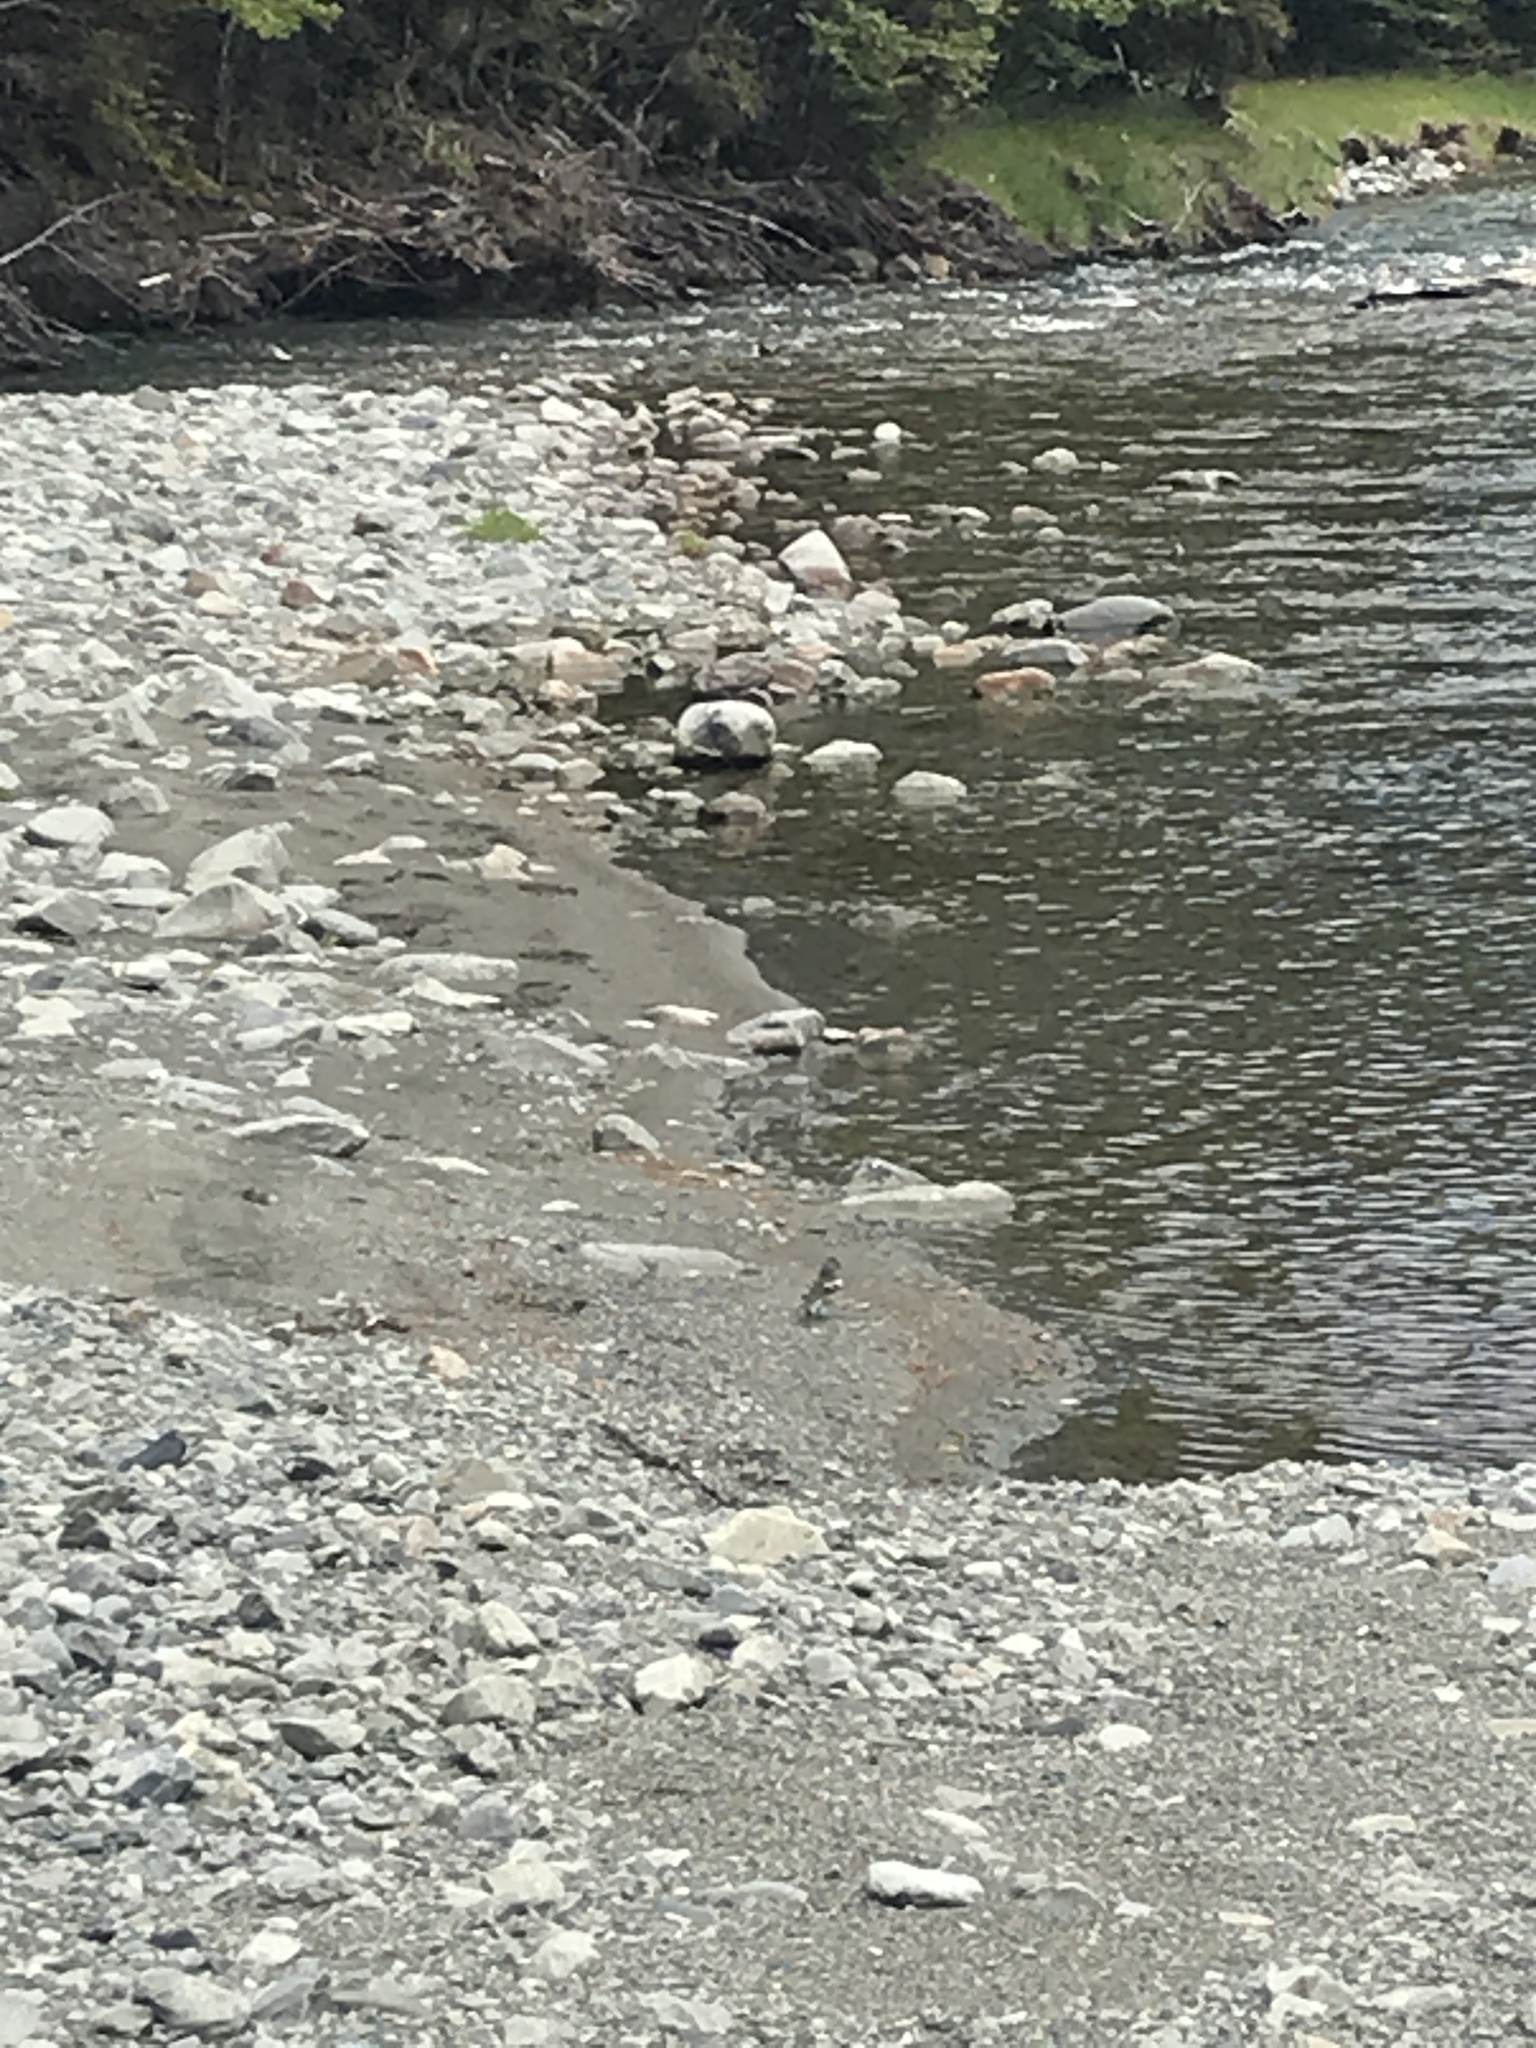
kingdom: Animalia
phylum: Chordata
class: Aves
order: Passeriformes
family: Fringillidae
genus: Fringilla
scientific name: Fringilla coelebs
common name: Common chaffinch
